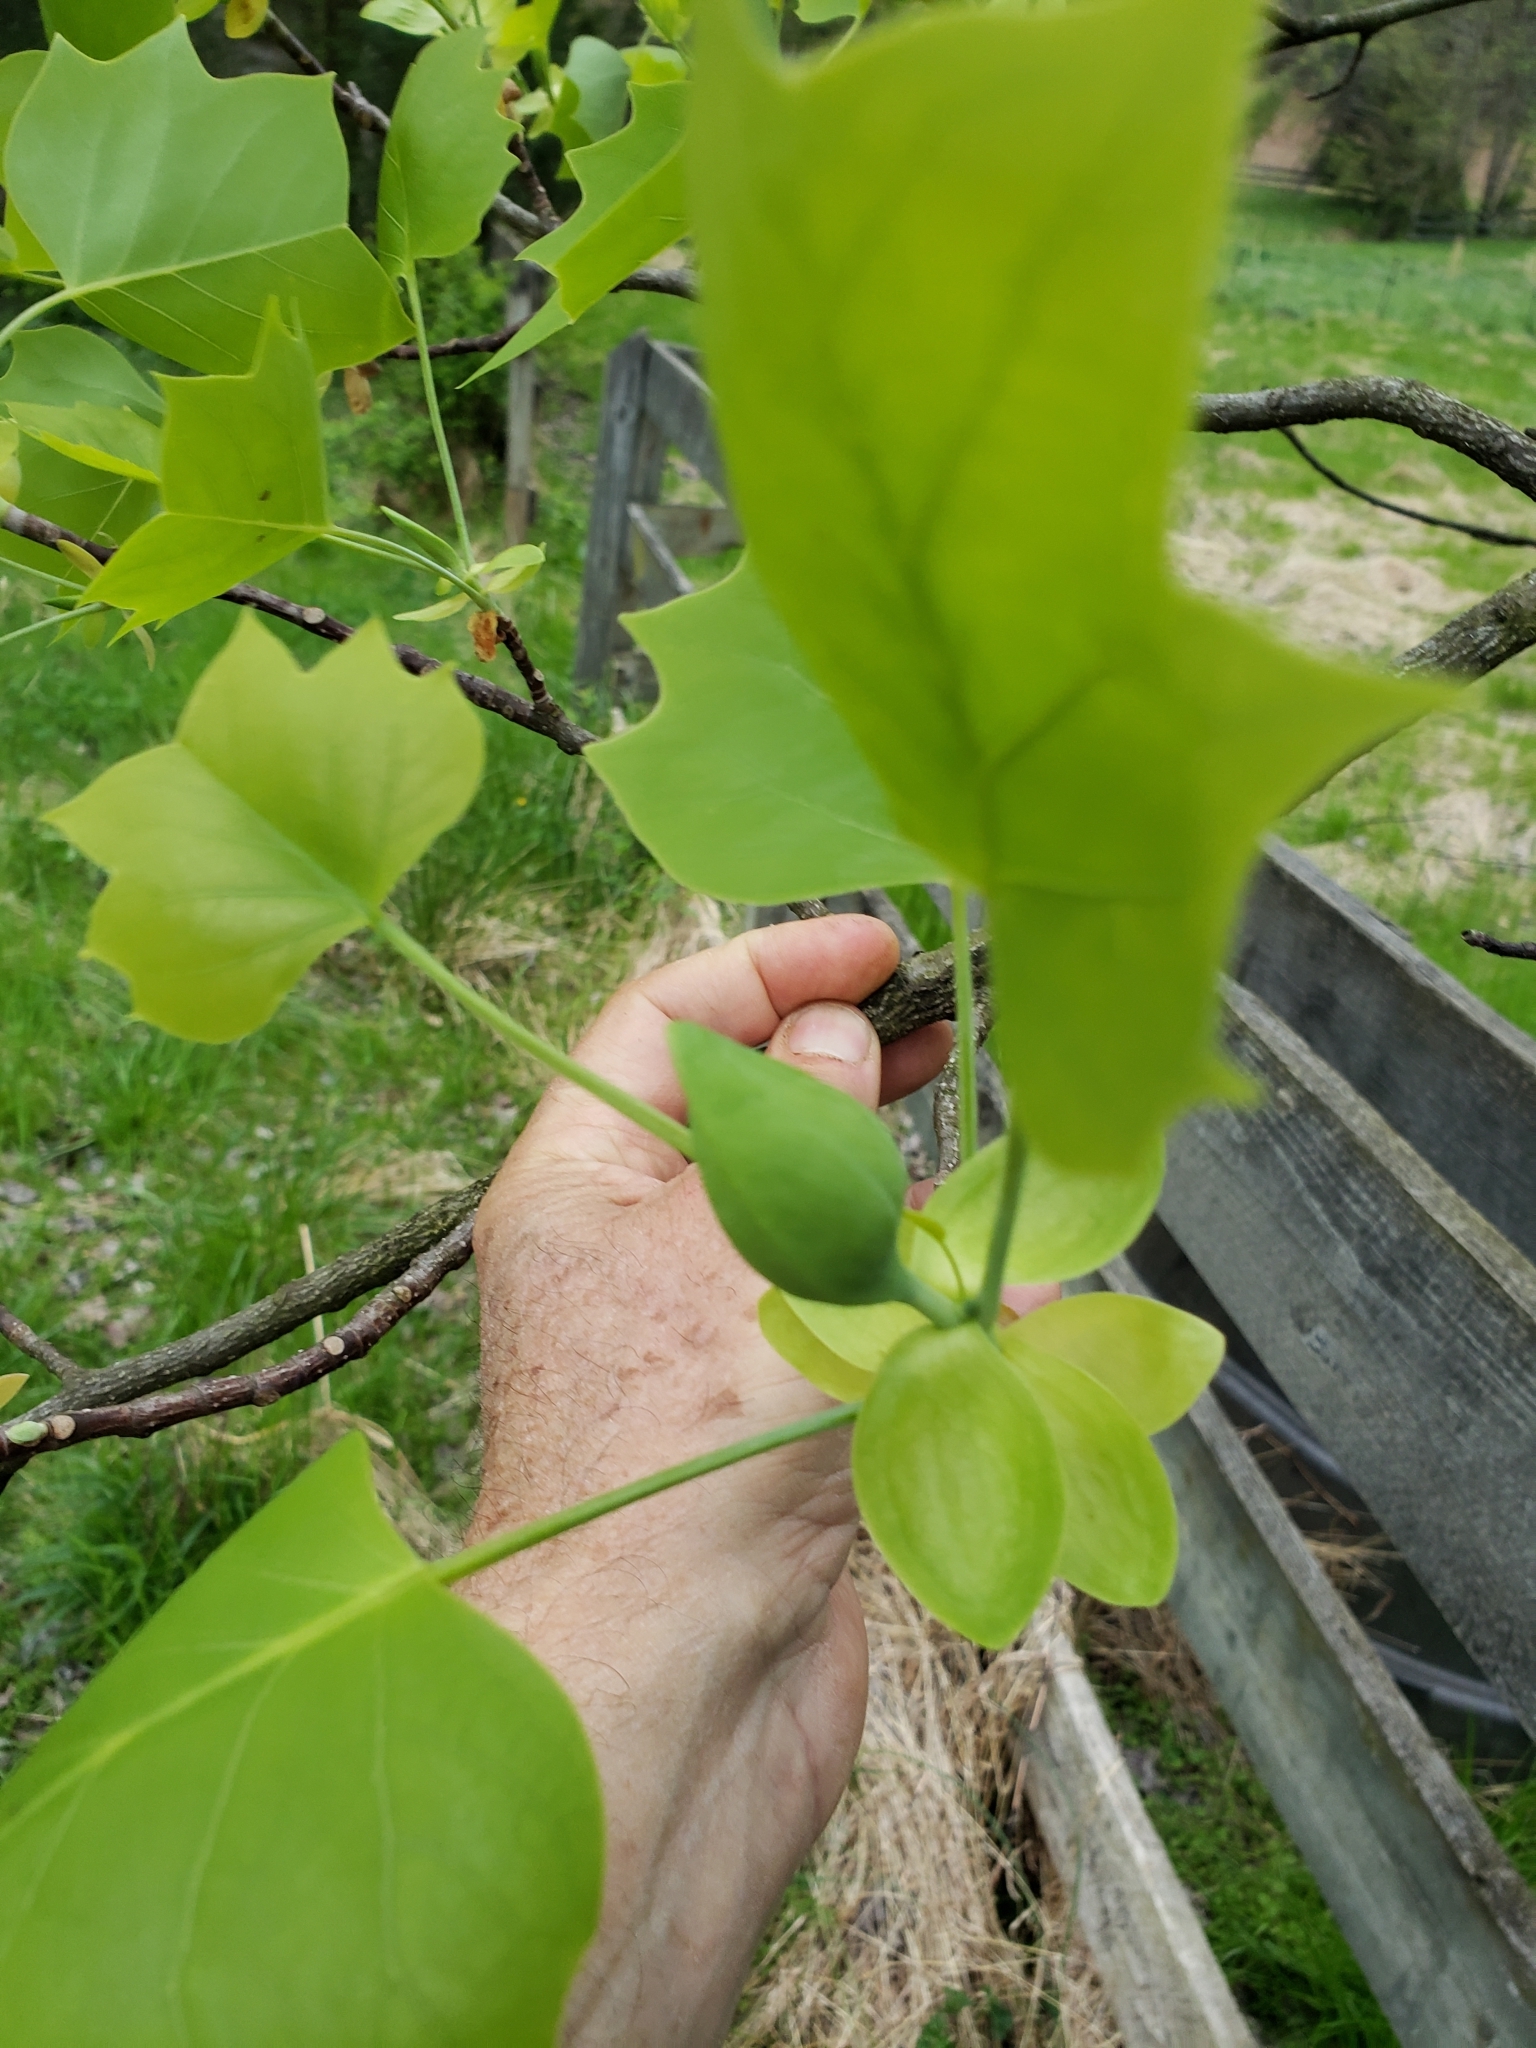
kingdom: Plantae
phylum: Tracheophyta
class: Magnoliopsida
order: Magnoliales
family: Magnoliaceae
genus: Liriodendron
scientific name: Liriodendron tulipifera
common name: Tulip tree
